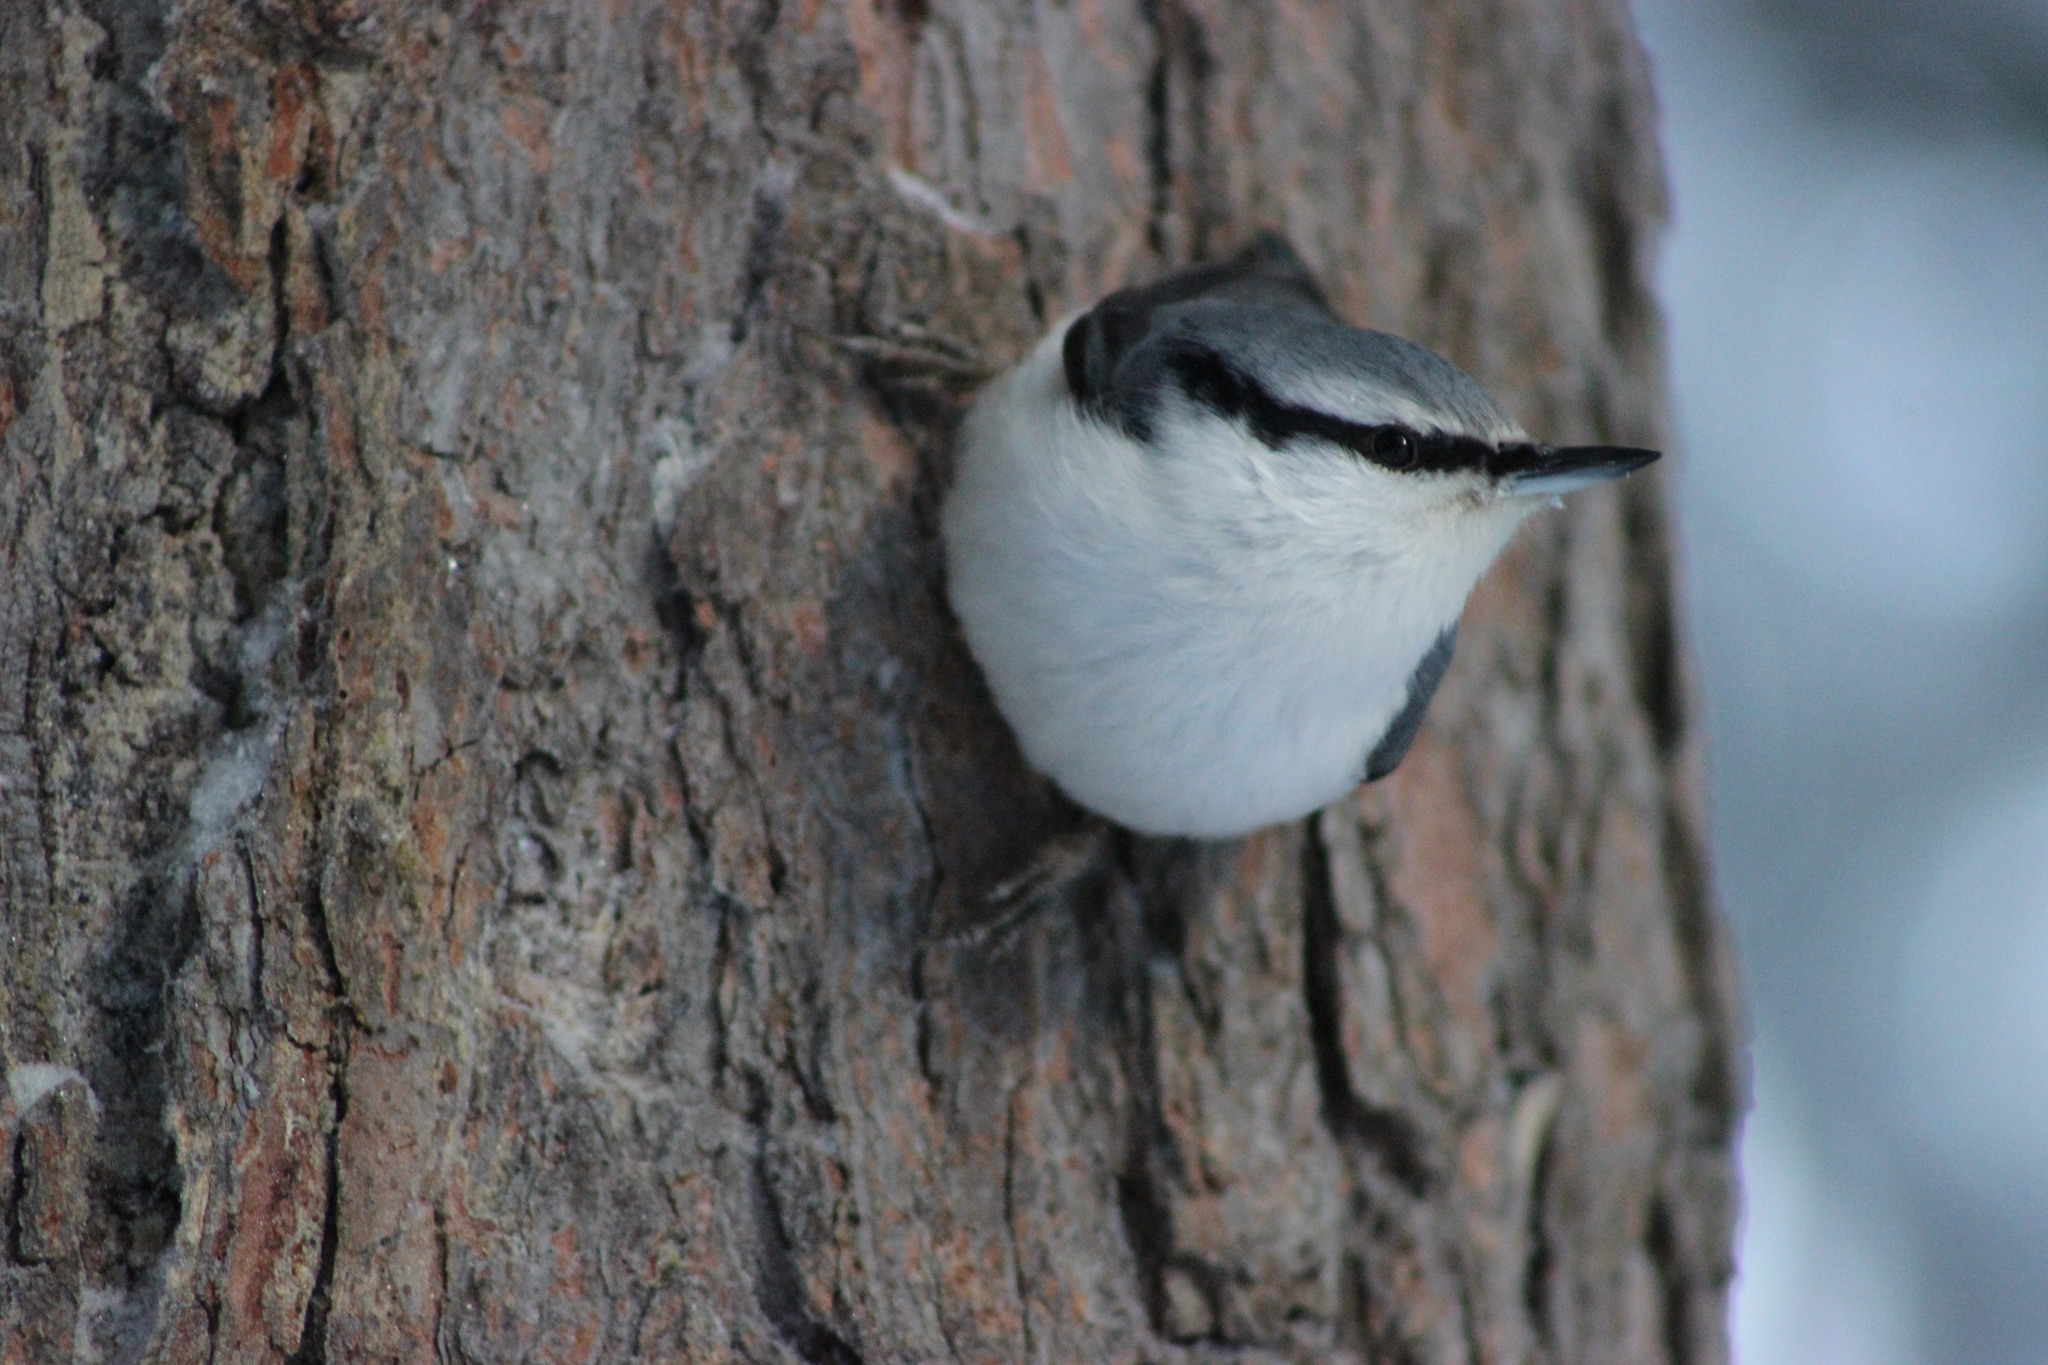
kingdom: Animalia
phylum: Chordata
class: Aves
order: Passeriformes
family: Sittidae
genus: Sitta
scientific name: Sitta europaea
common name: Eurasian nuthatch
